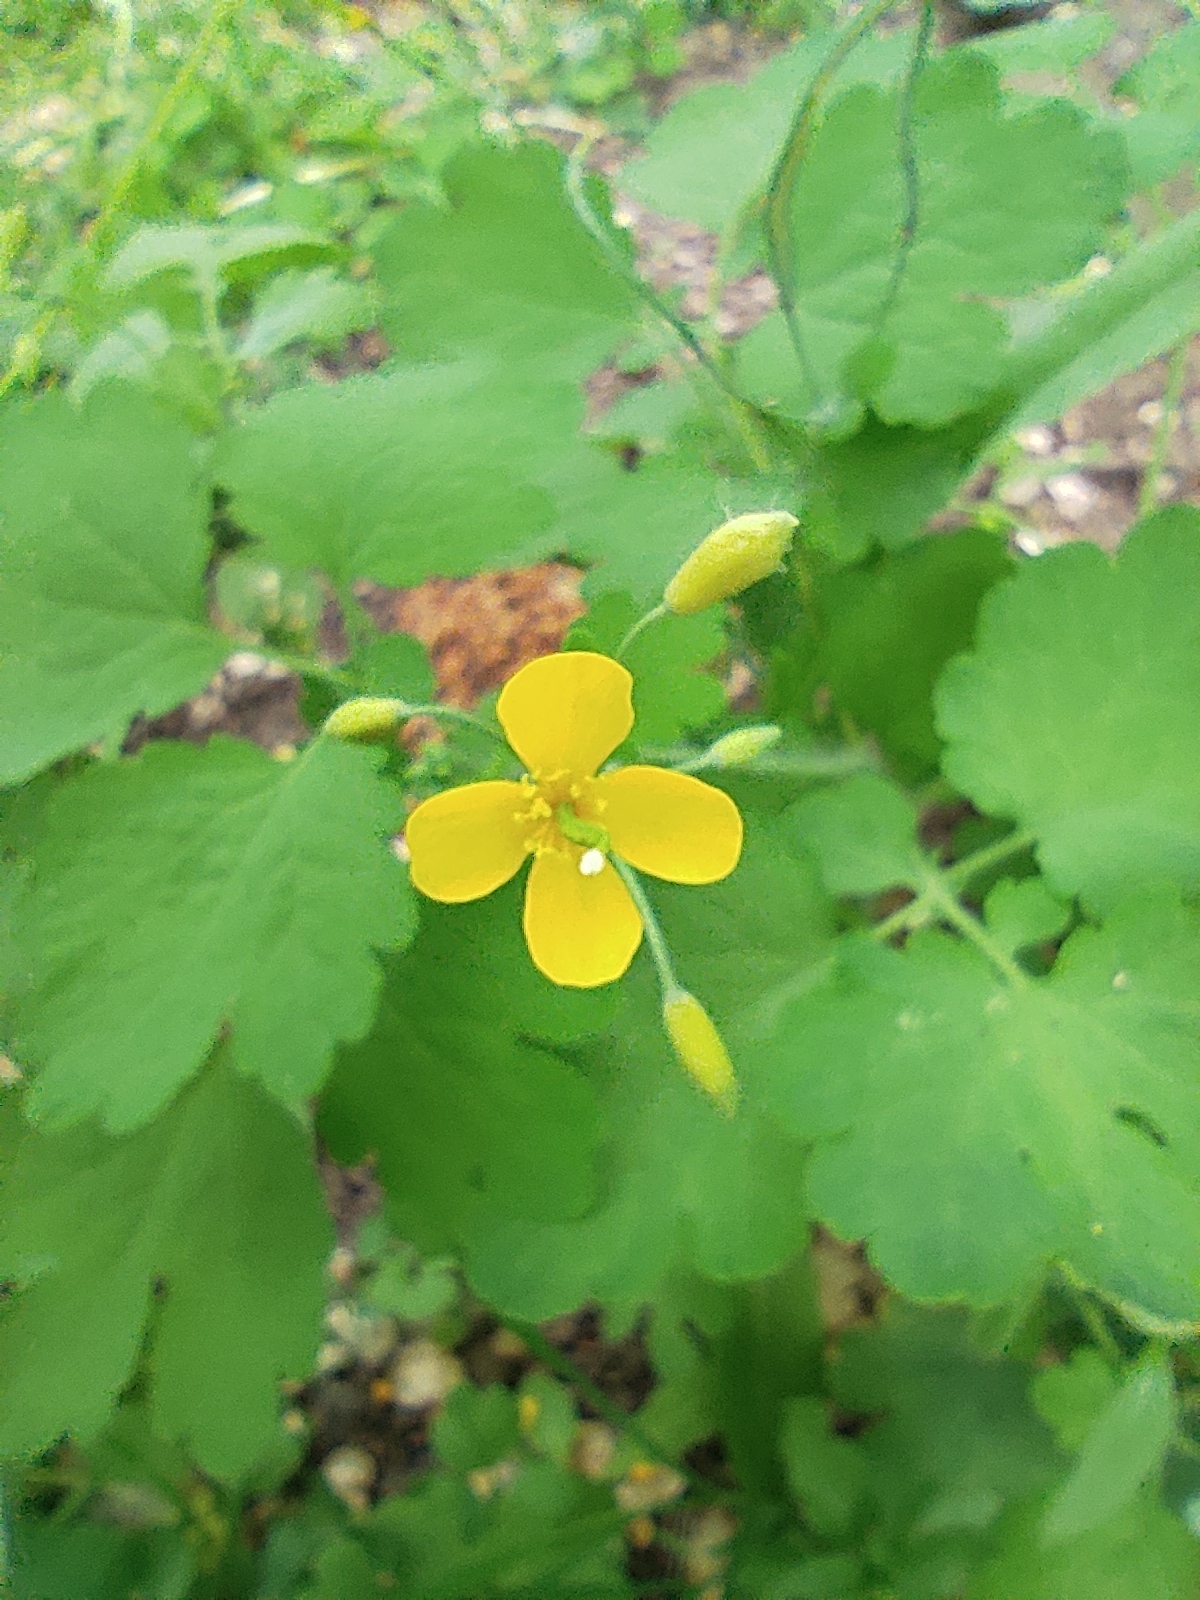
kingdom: Plantae
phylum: Tracheophyta
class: Magnoliopsida
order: Ranunculales
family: Papaveraceae
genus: Chelidonium
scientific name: Chelidonium majus
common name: Greater celandine
